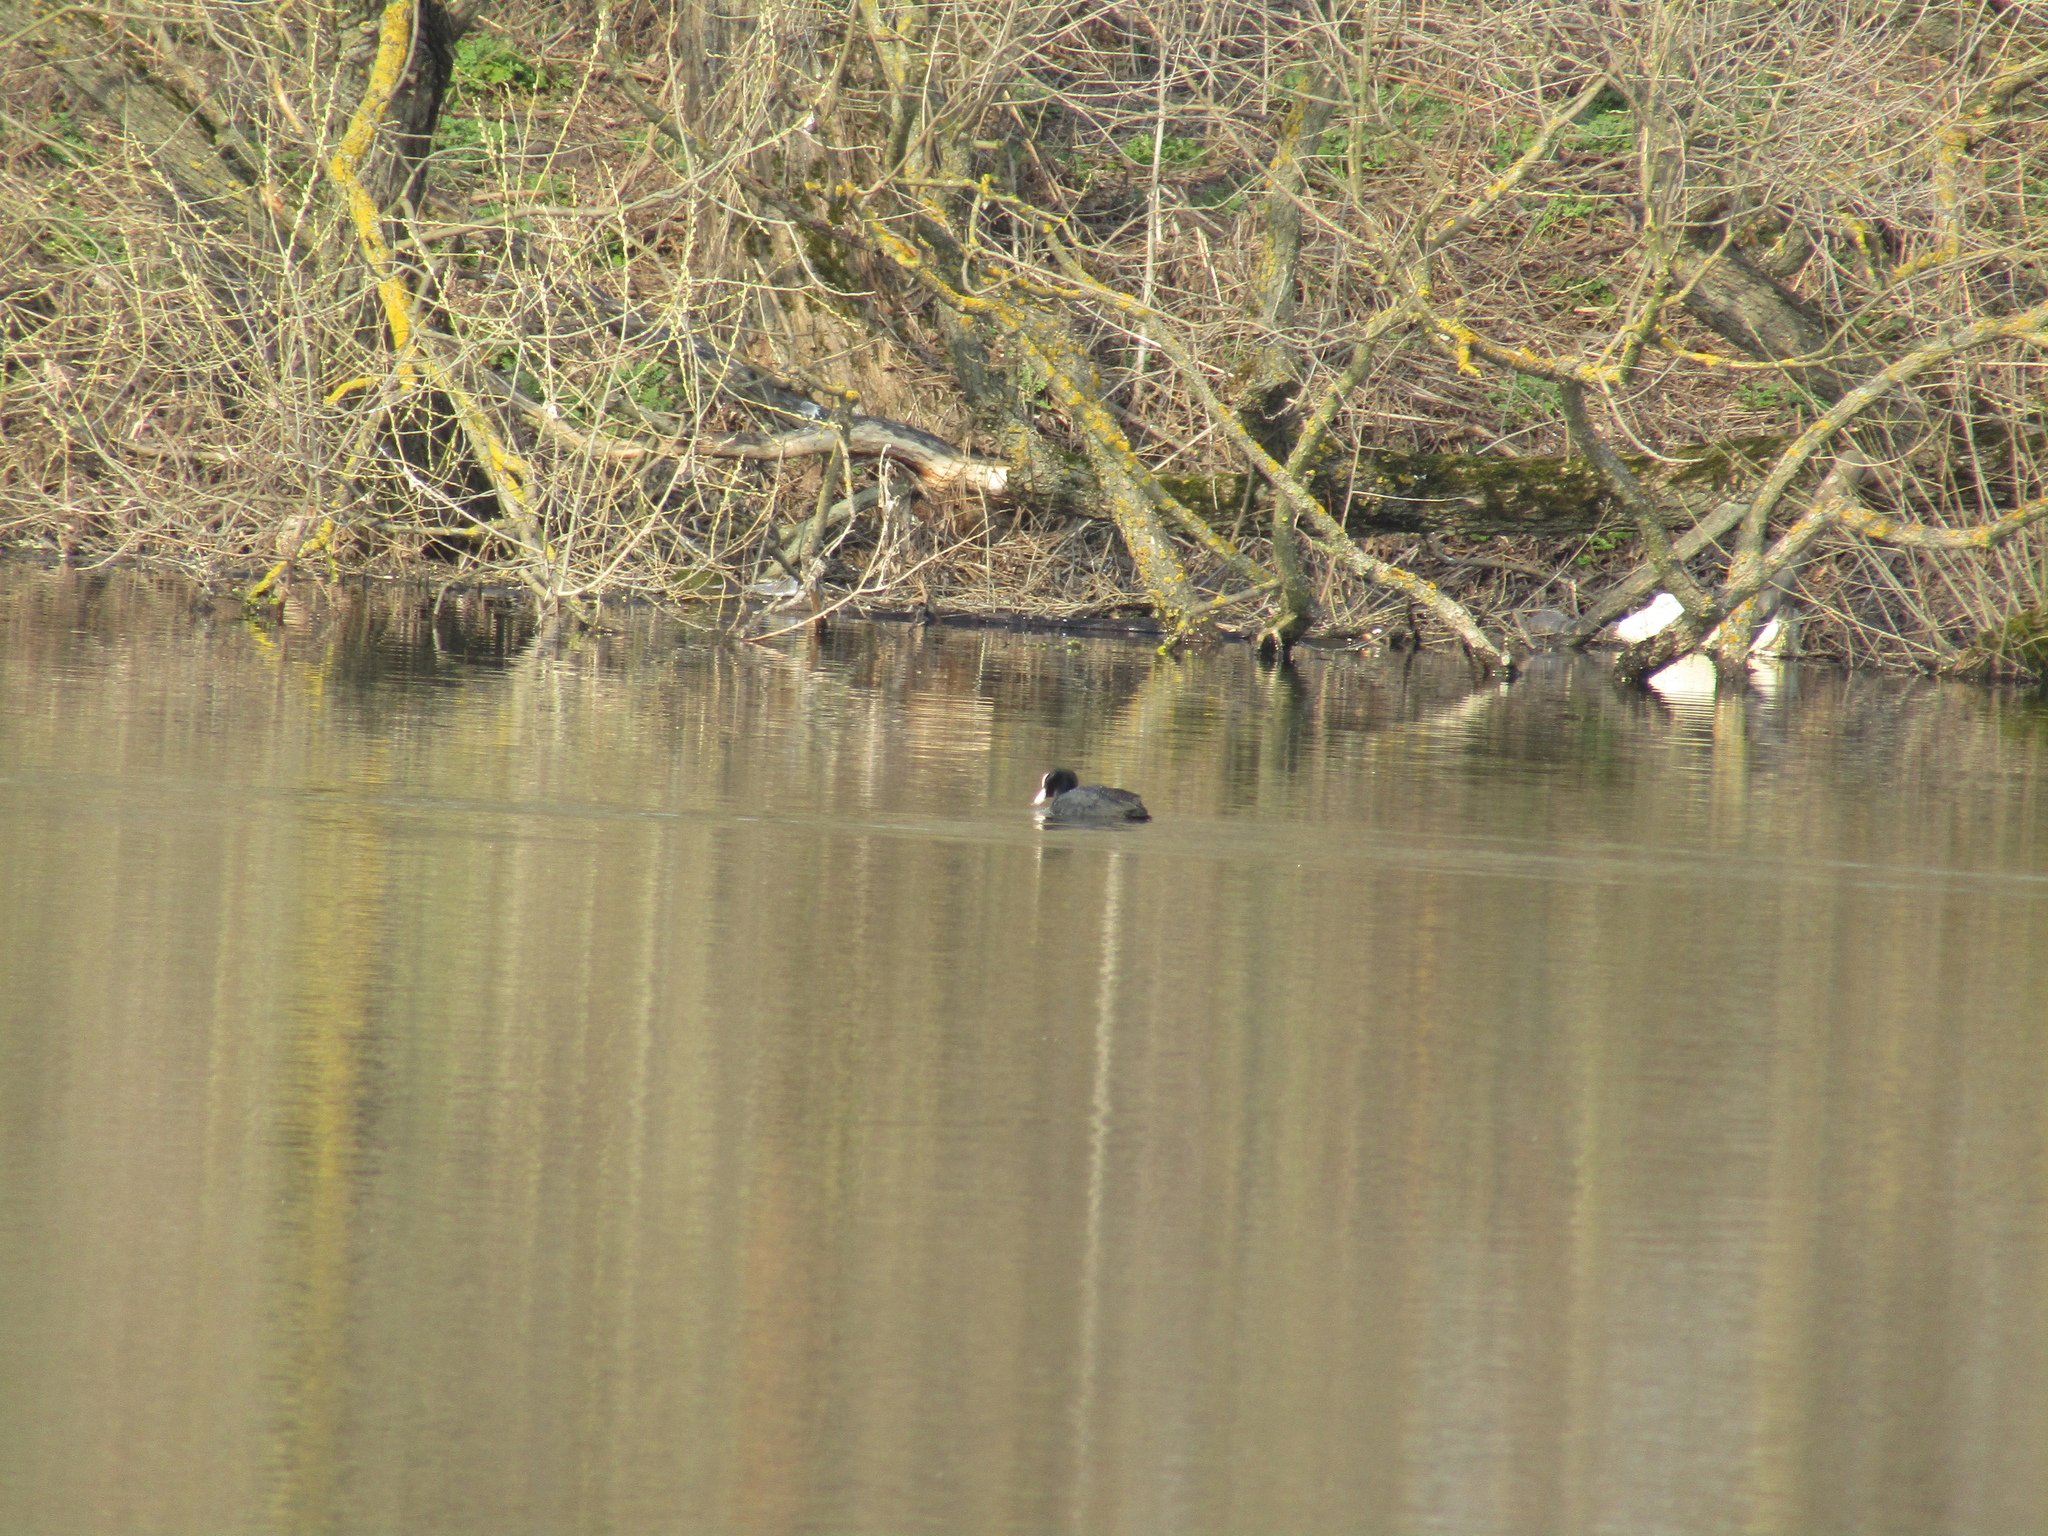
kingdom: Animalia
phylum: Chordata
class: Aves
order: Gruiformes
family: Rallidae
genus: Fulica
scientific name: Fulica atra
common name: Eurasian coot
